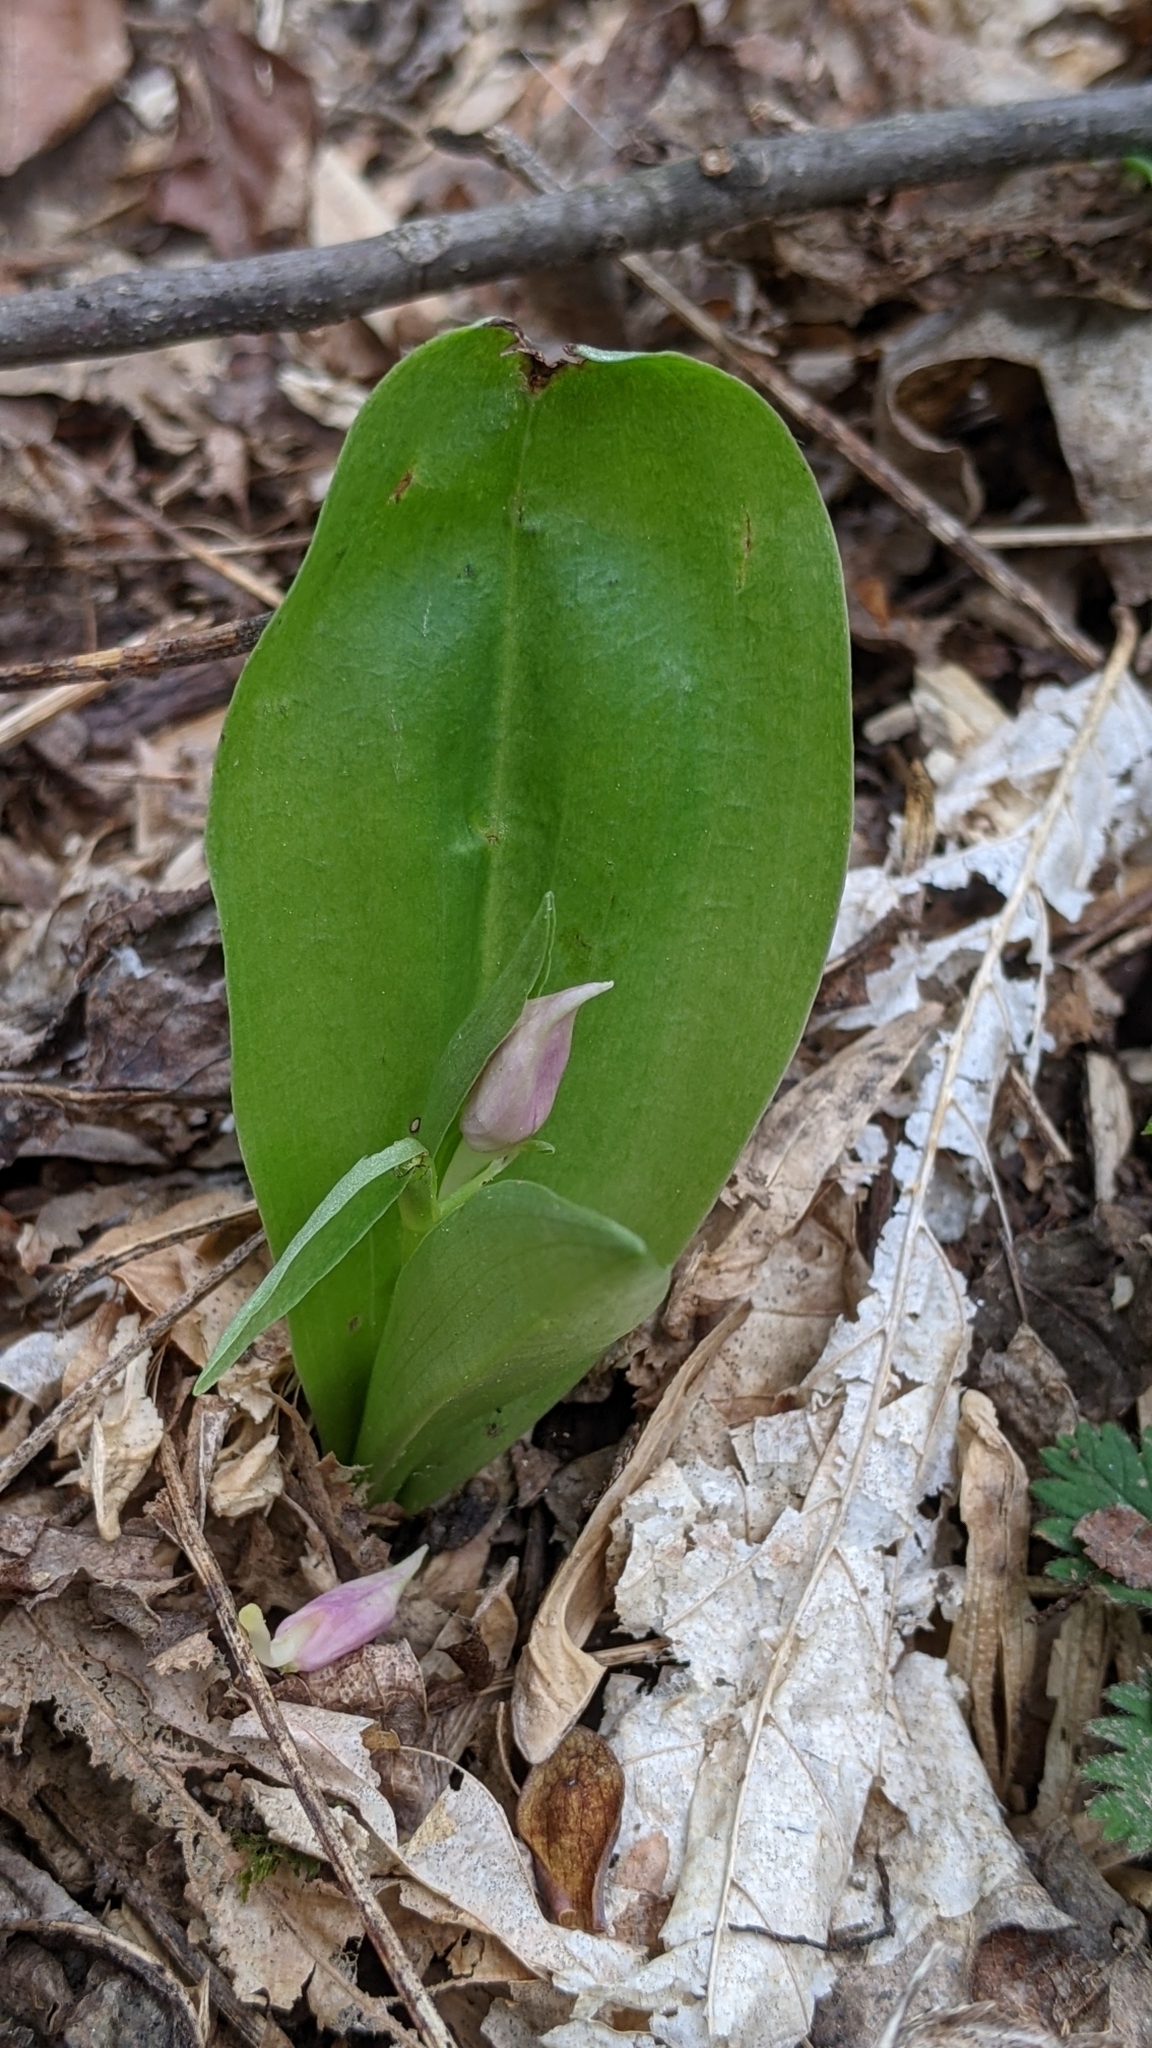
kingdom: Plantae
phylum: Tracheophyta
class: Liliopsida
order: Asparagales
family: Orchidaceae
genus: Galearis
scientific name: Galearis spectabilis
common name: Purple-hooded orchis
